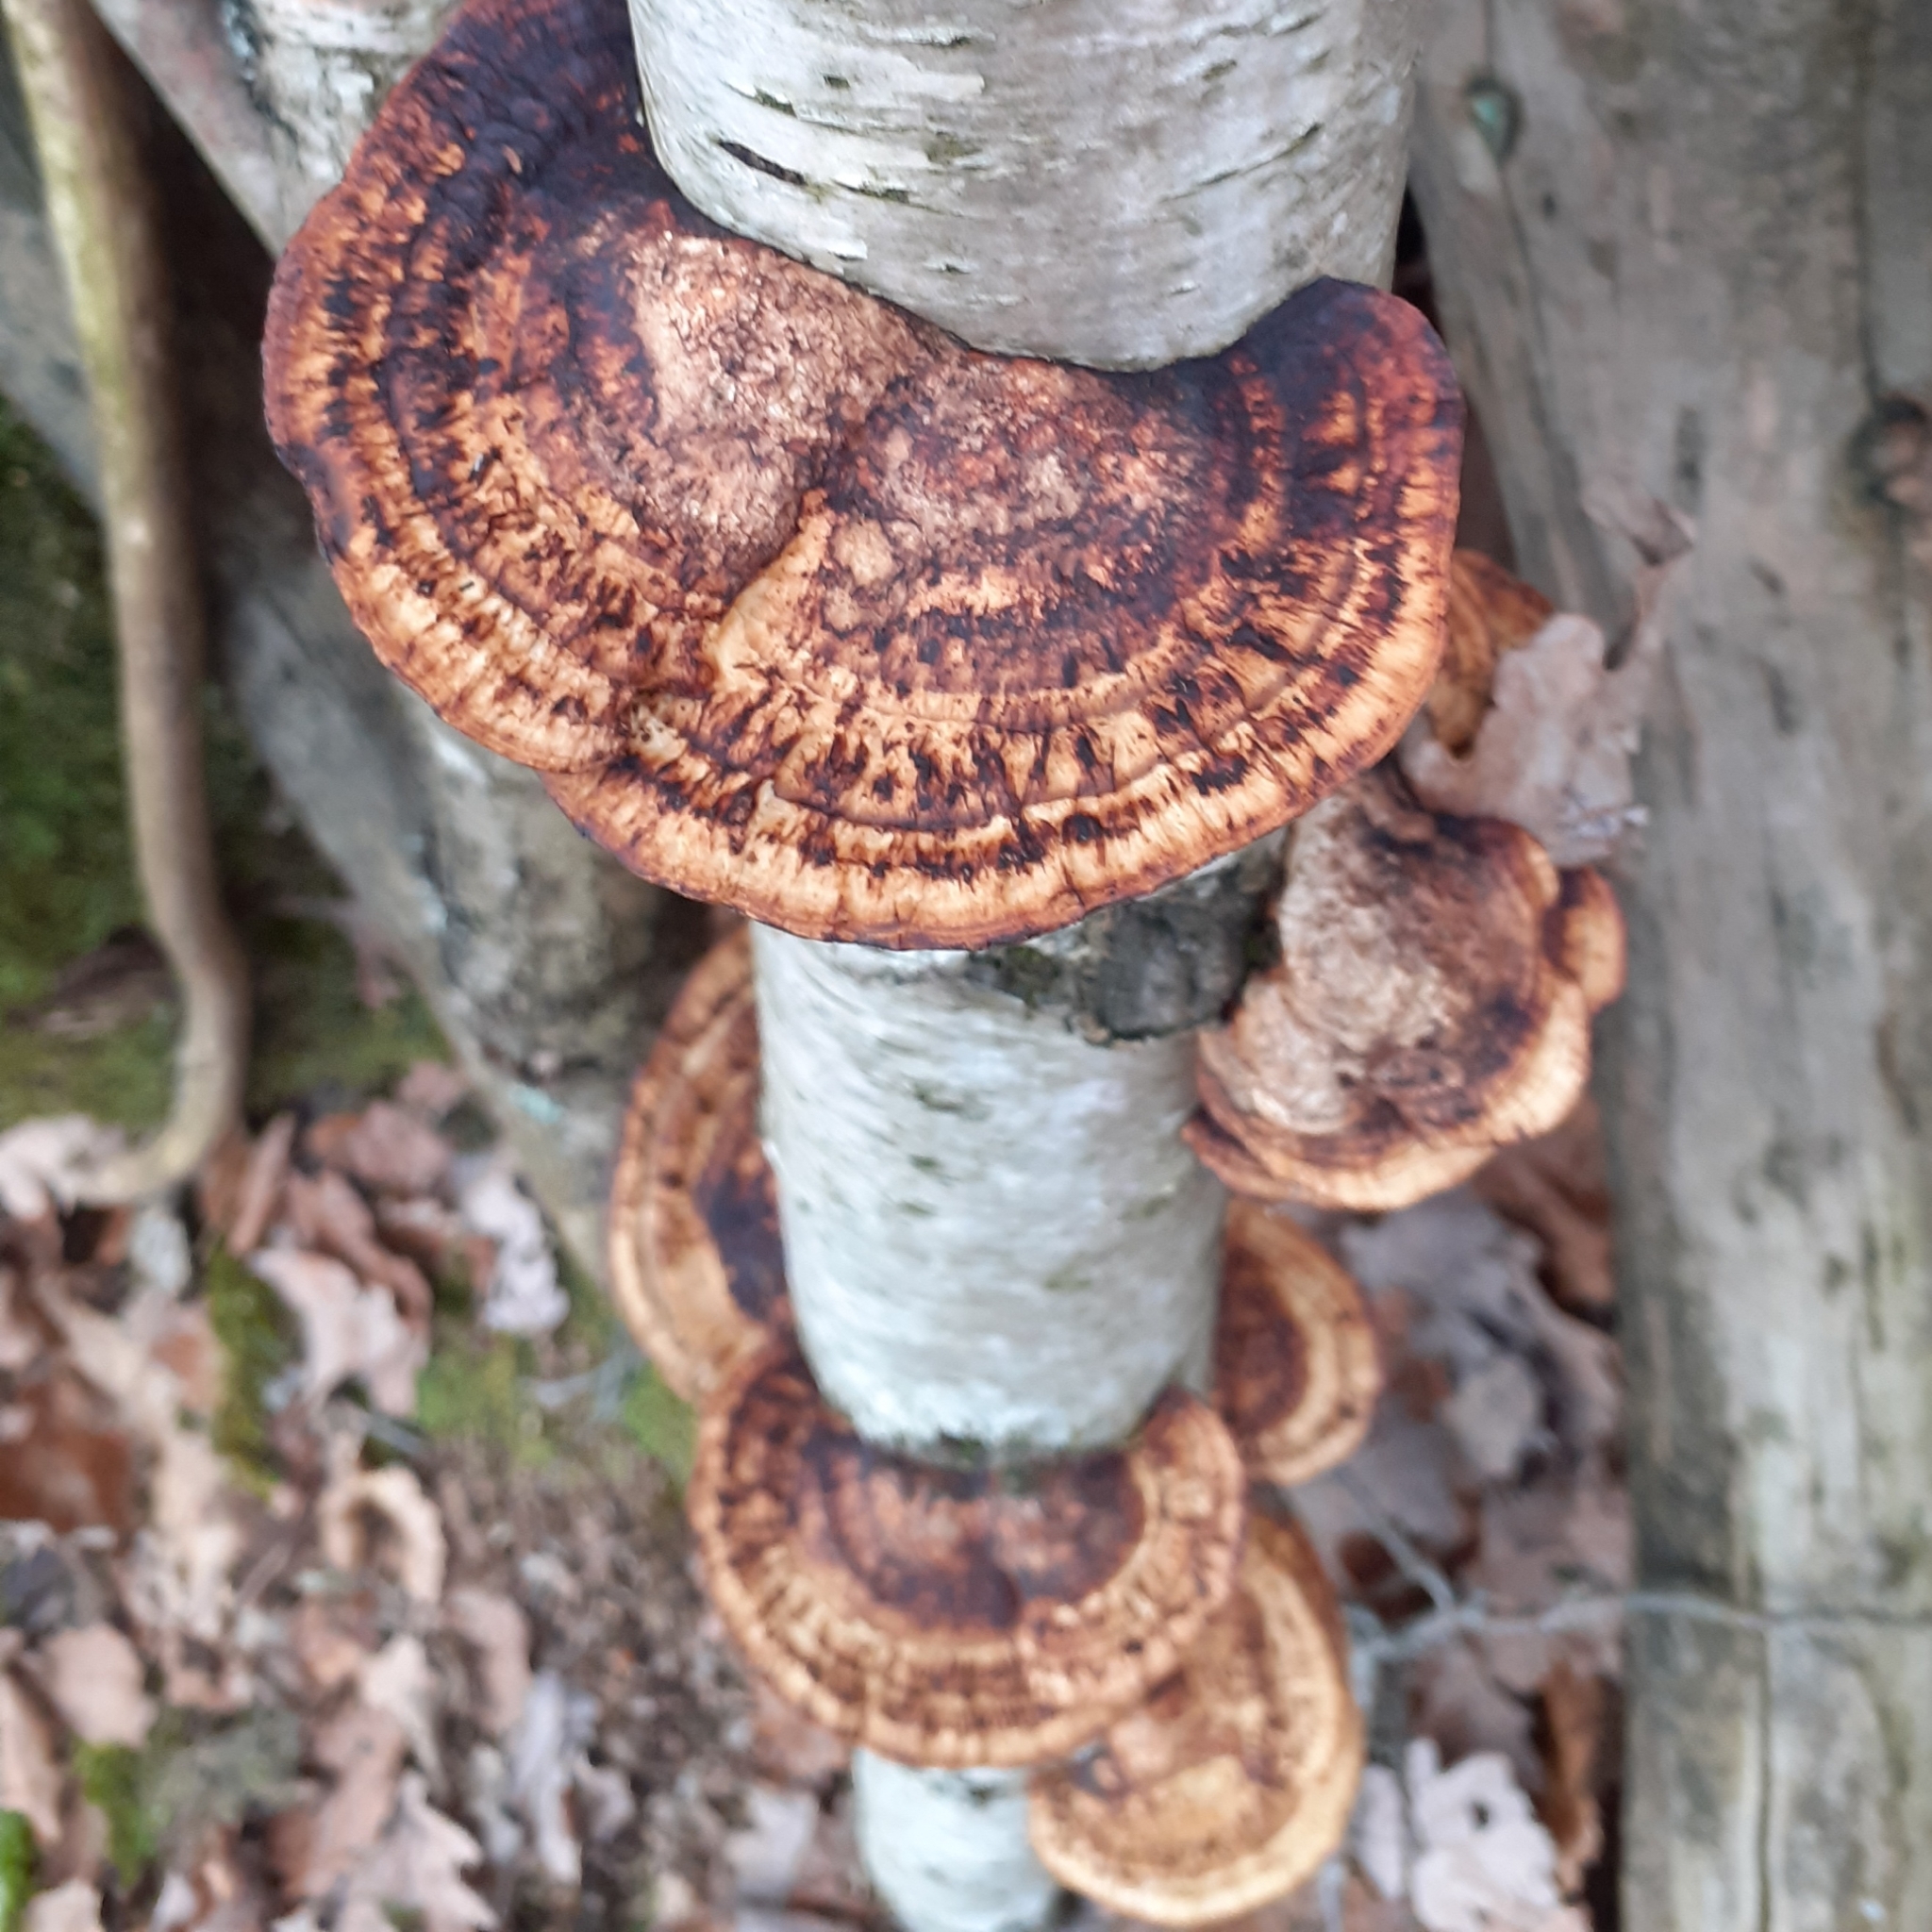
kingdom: Fungi
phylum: Basidiomycota
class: Agaricomycetes
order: Polyporales
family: Polyporaceae
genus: Daedaleopsis
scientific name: Daedaleopsis confragosa
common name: Blushing bracket
